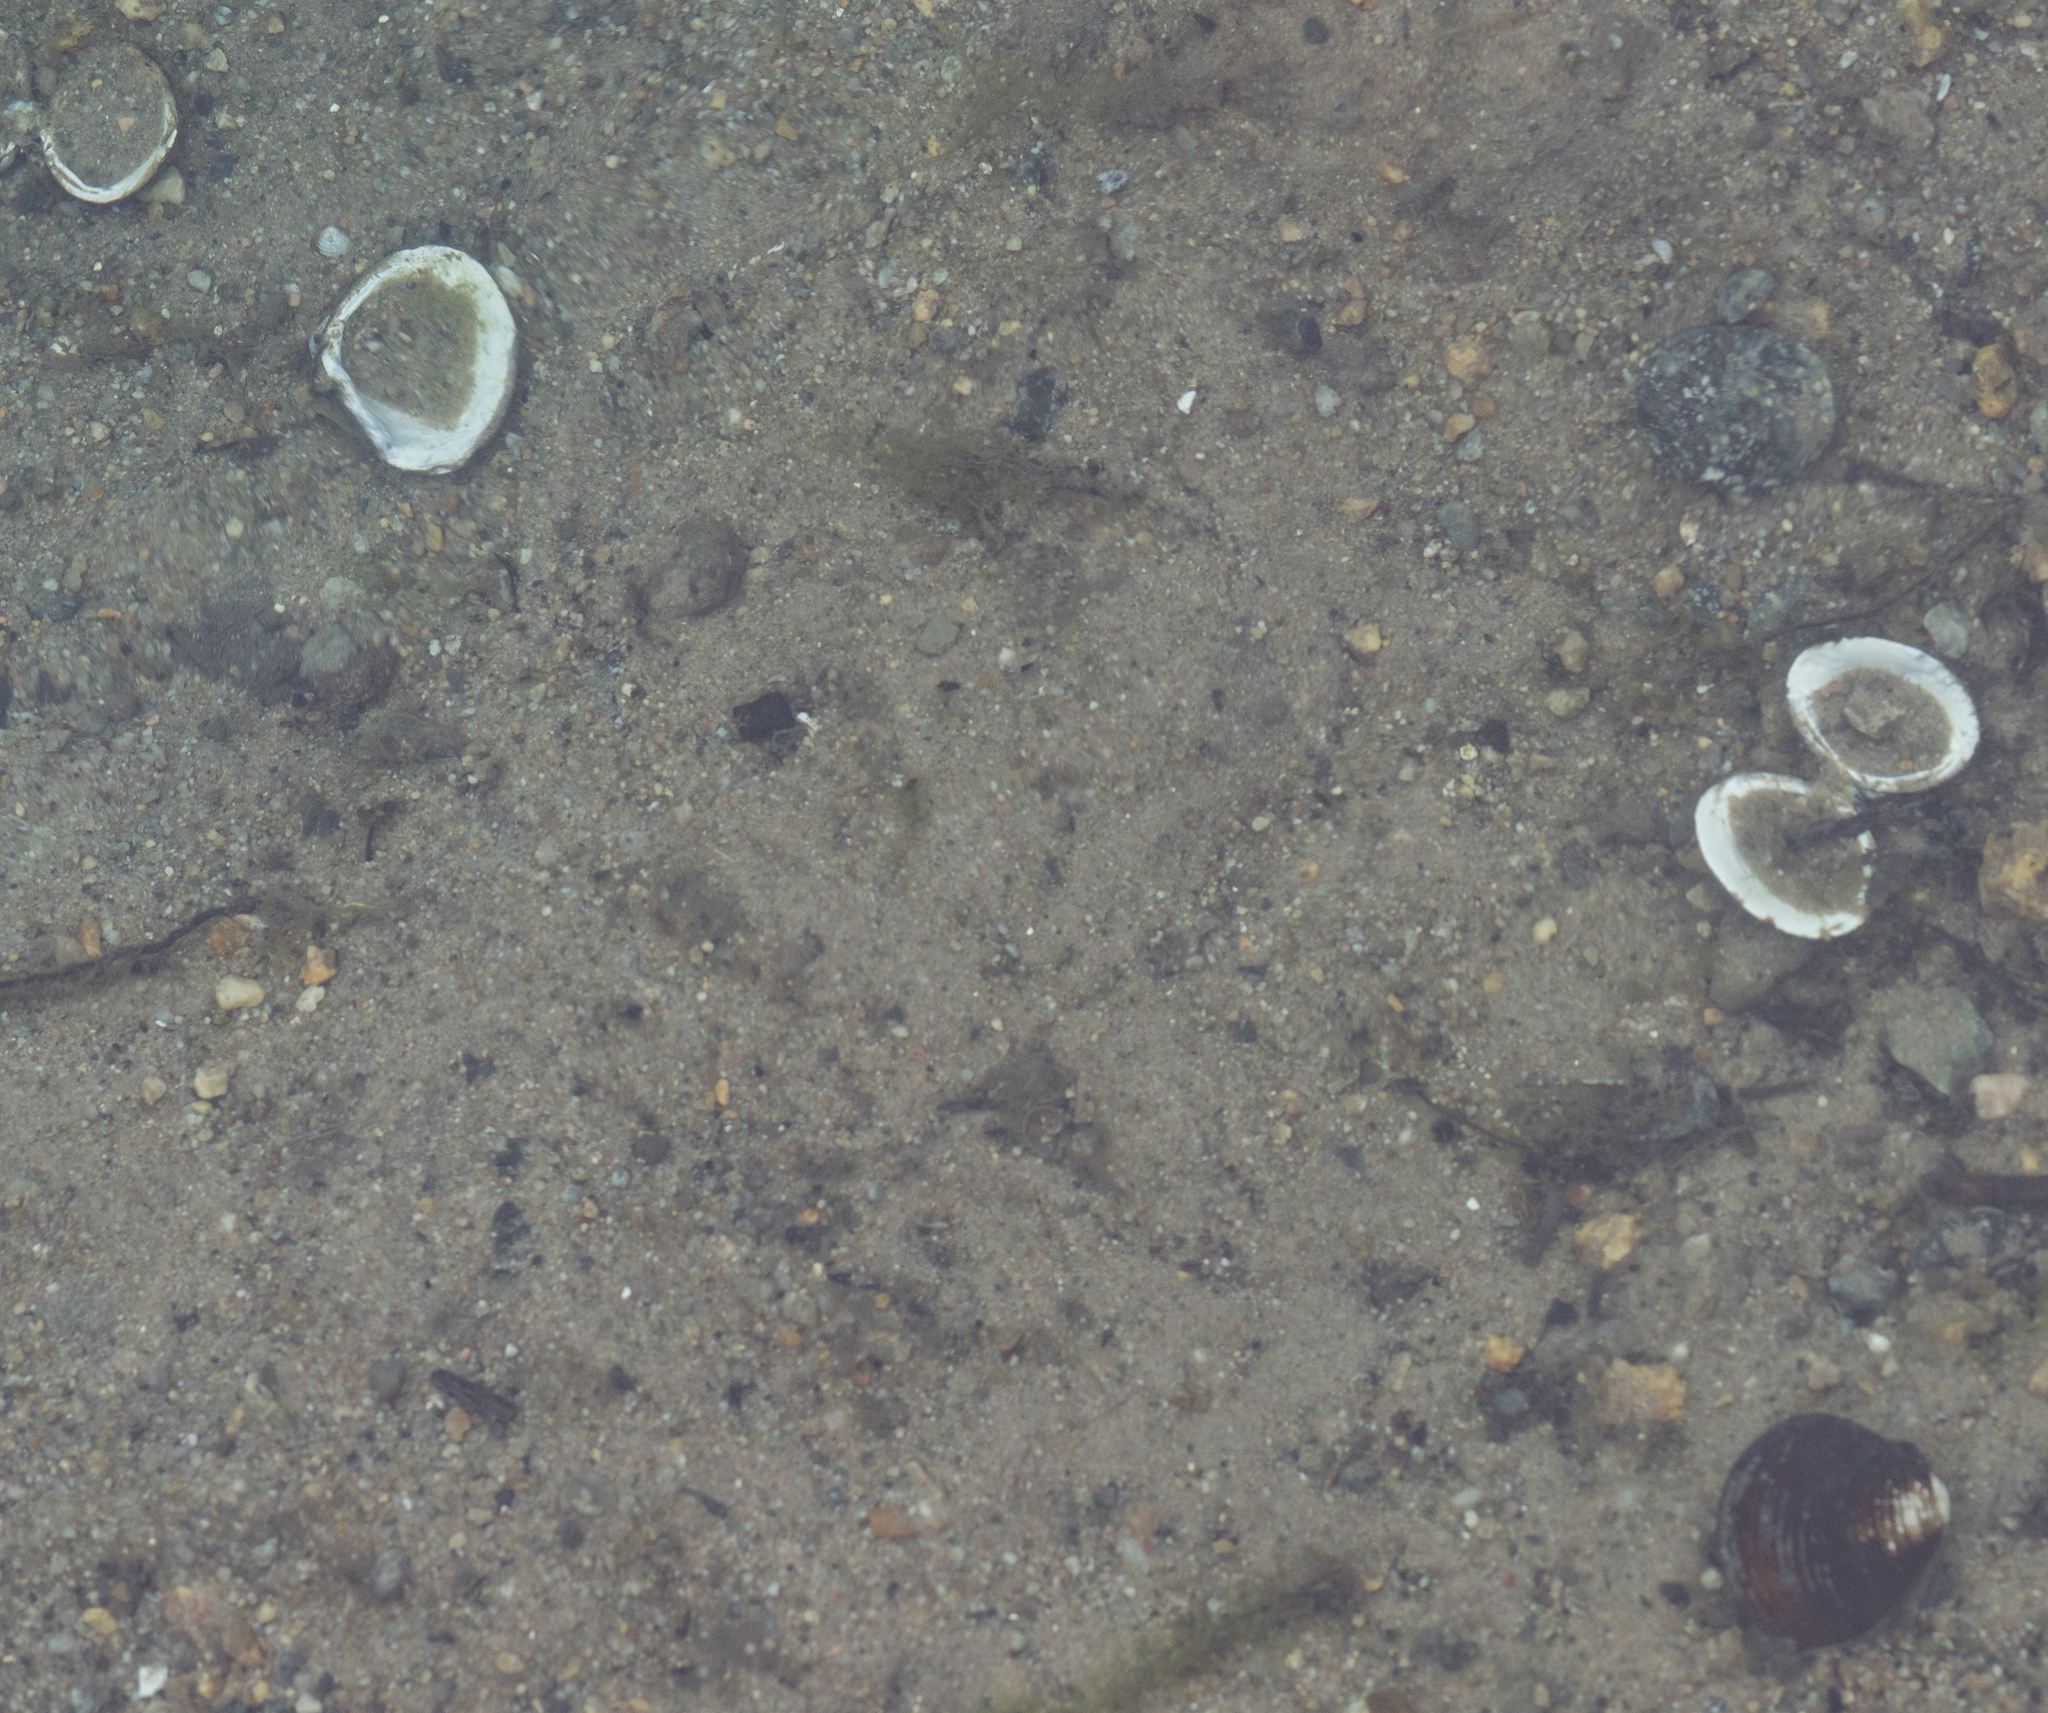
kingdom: Animalia
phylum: Mollusca
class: Bivalvia
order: Venerida
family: Cyrenidae
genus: Corbicula
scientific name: Corbicula fluminea
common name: Asian clam
